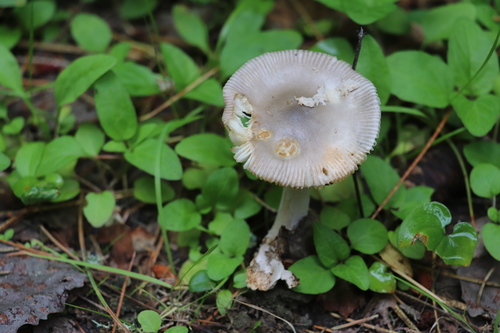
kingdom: Fungi
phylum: Basidiomycota
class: Agaricomycetes
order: Agaricales
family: Amanitaceae
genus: Amanita
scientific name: Amanita vaginata
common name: Grisette
